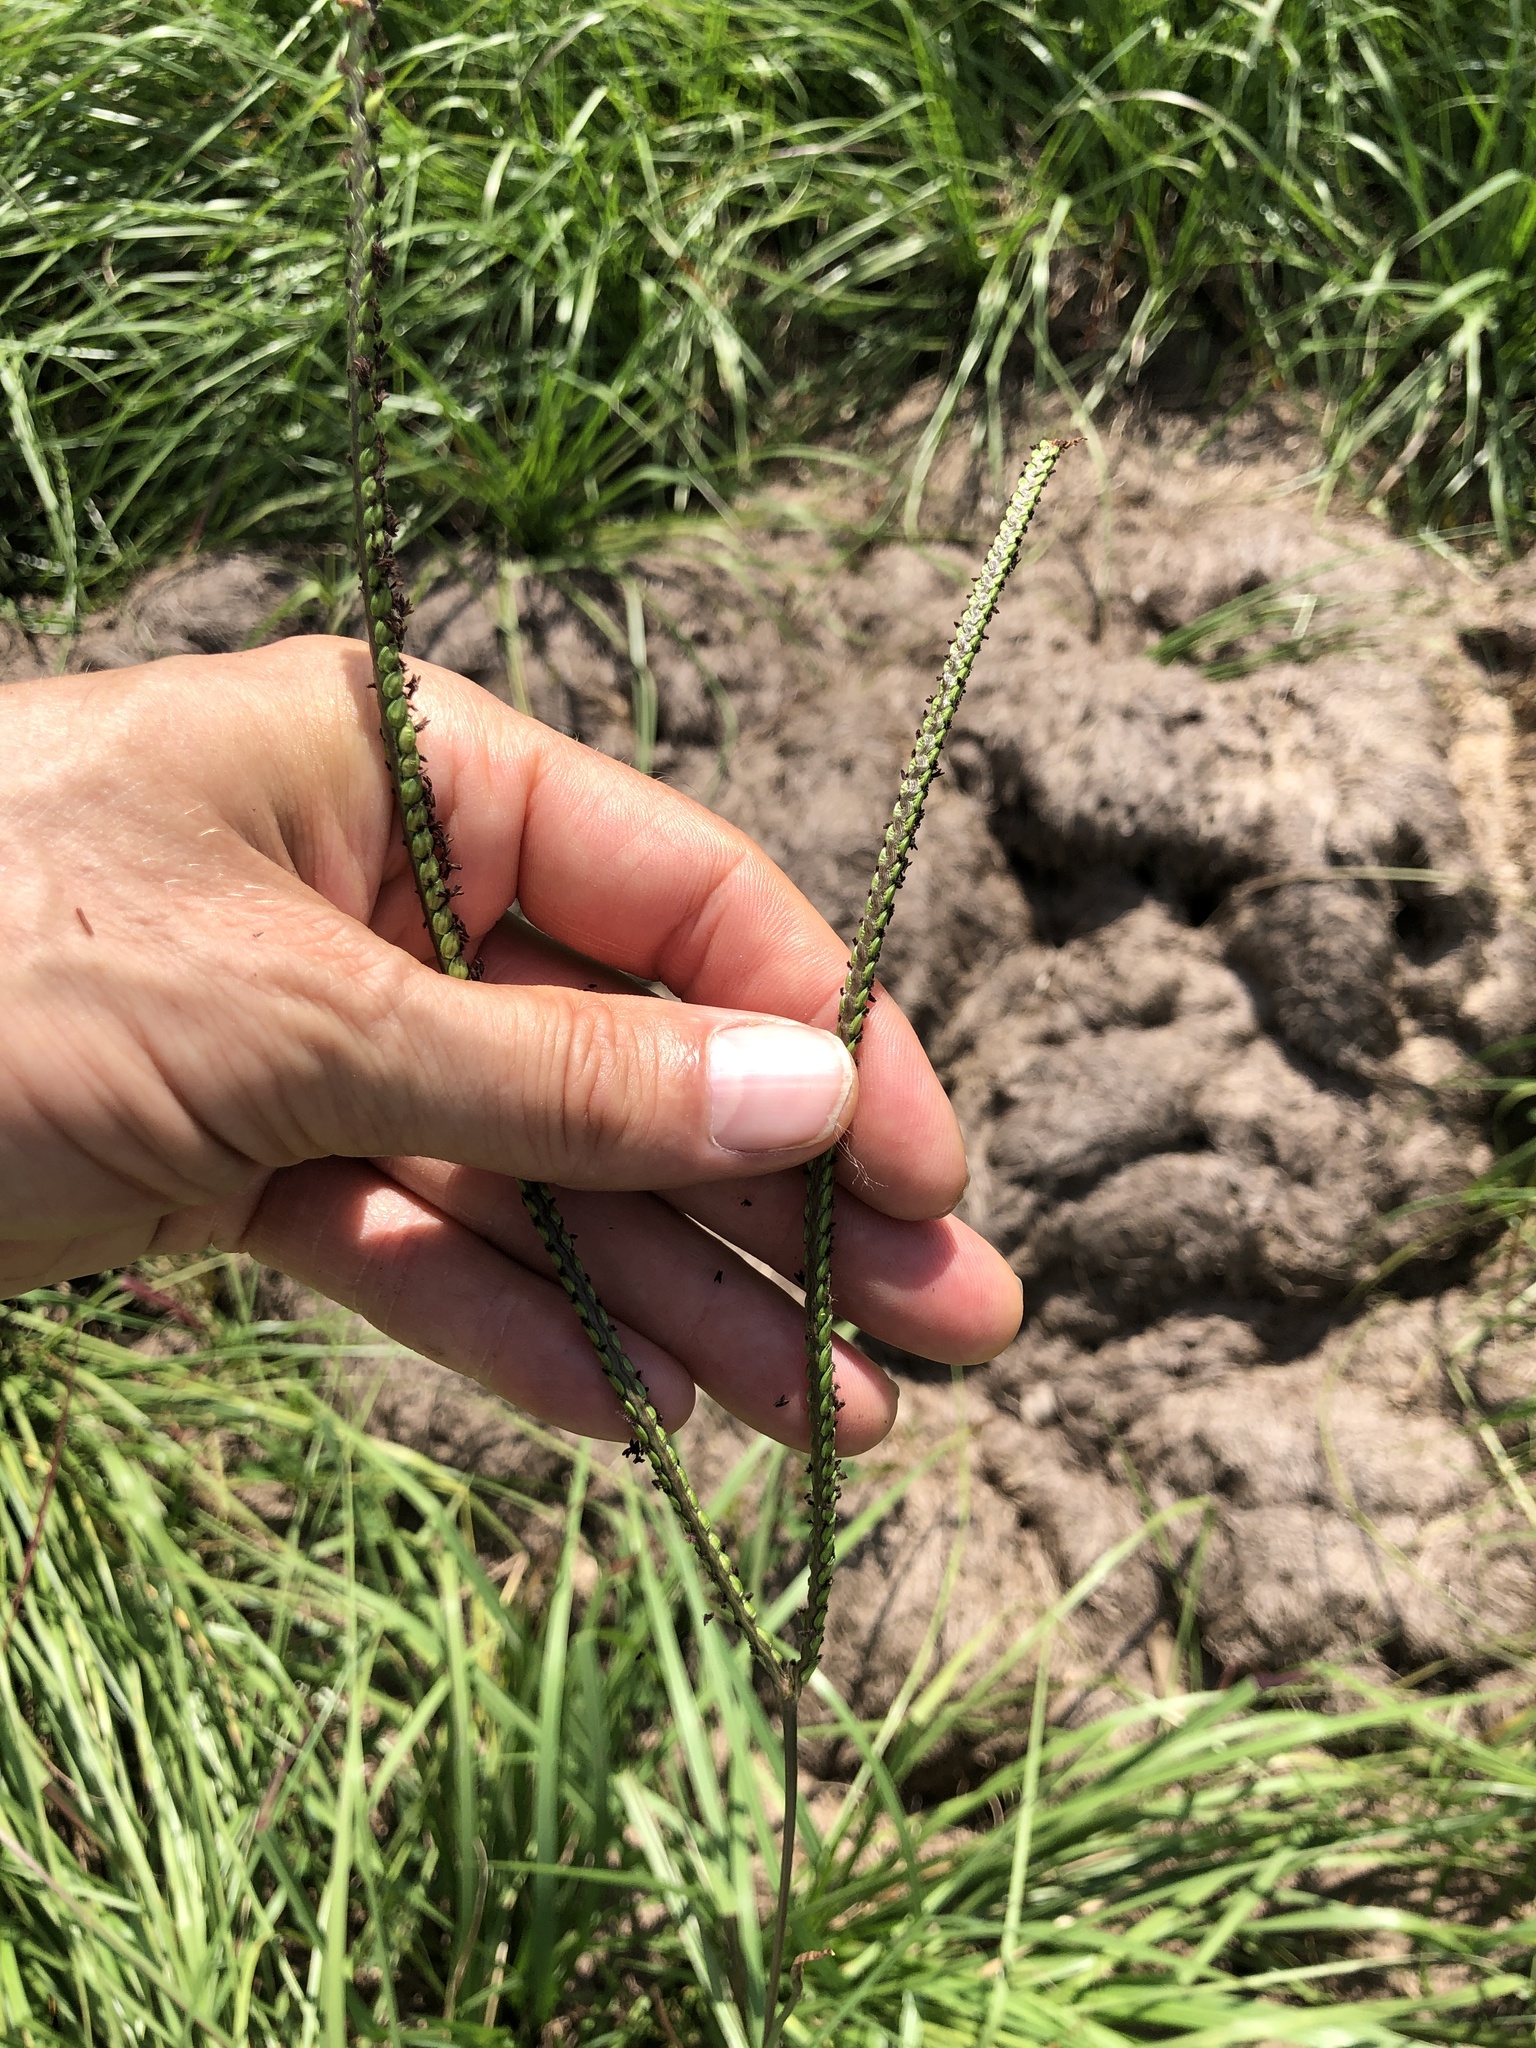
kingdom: Plantae
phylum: Tracheophyta
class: Liliopsida
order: Poales
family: Poaceae
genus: Paspalum
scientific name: Paspalum notatum
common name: Bahiagrass
